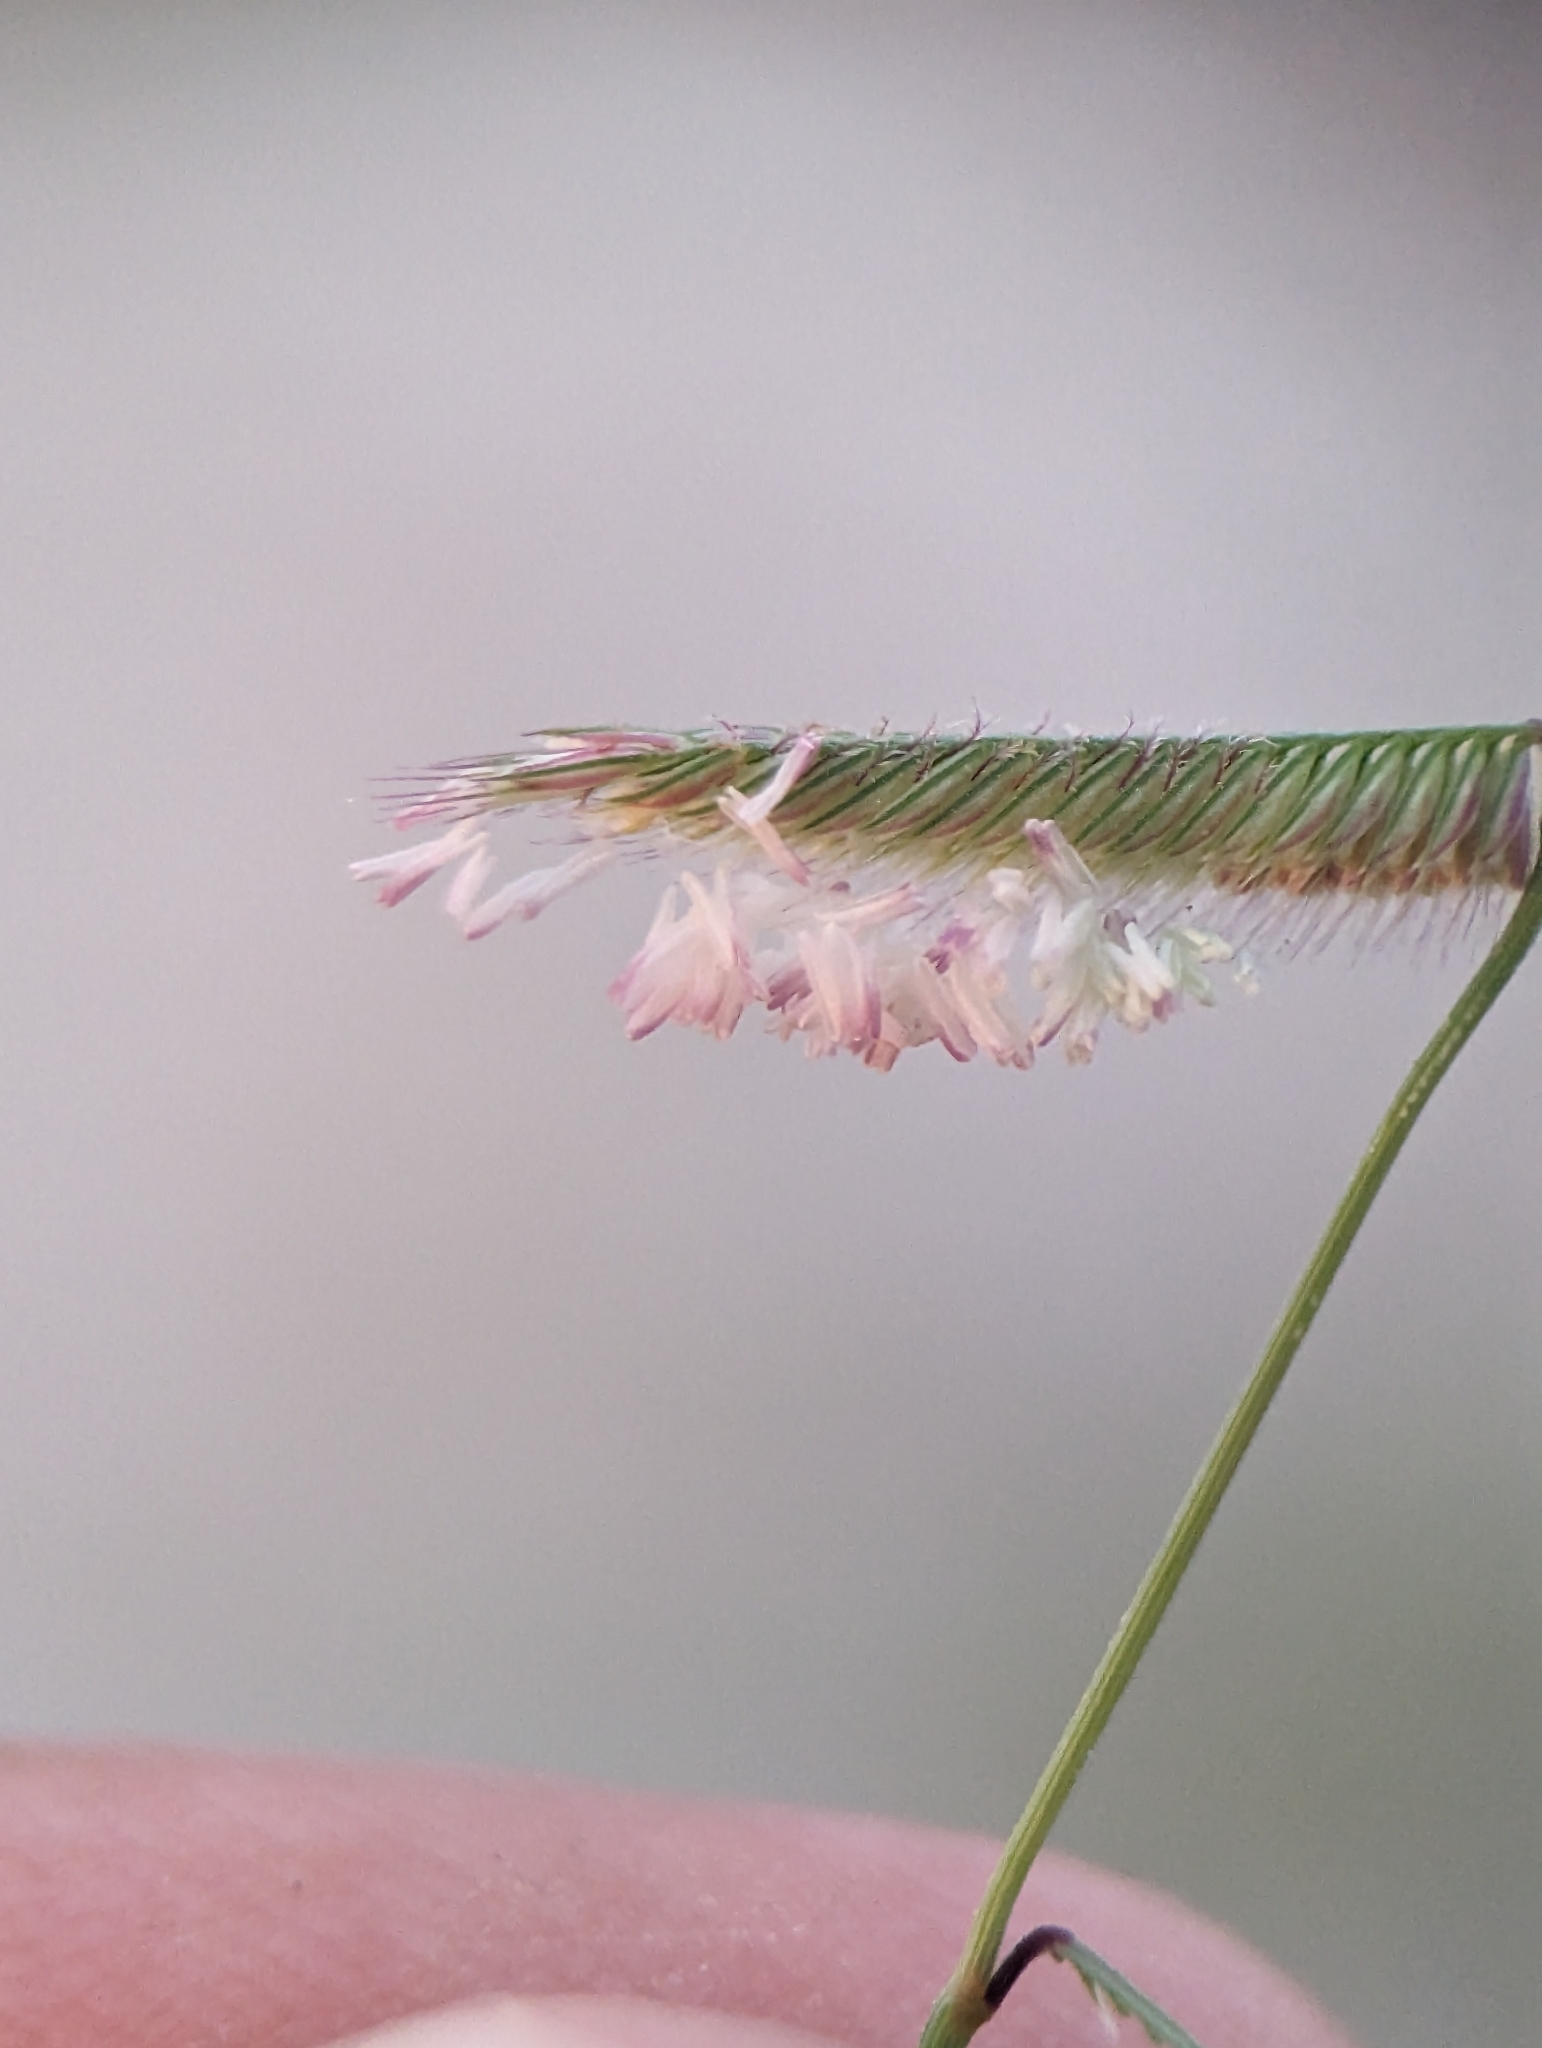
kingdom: Plantae
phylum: Tracheophyta
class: Liliopsida
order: Poales
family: Poaceae
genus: Bouteloua
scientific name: Bouteloua barbata
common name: Six-weeks grama
